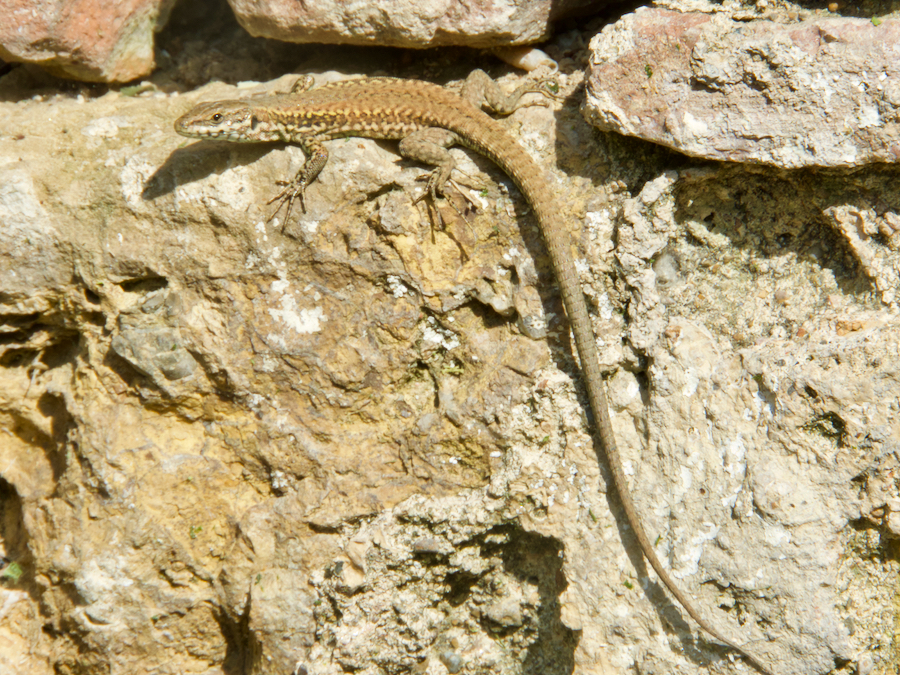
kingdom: Animalia
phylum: Chordata
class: Squamata
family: Lacertidae
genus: Podarcis
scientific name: Podarcis muralis
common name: Common wall lizard
